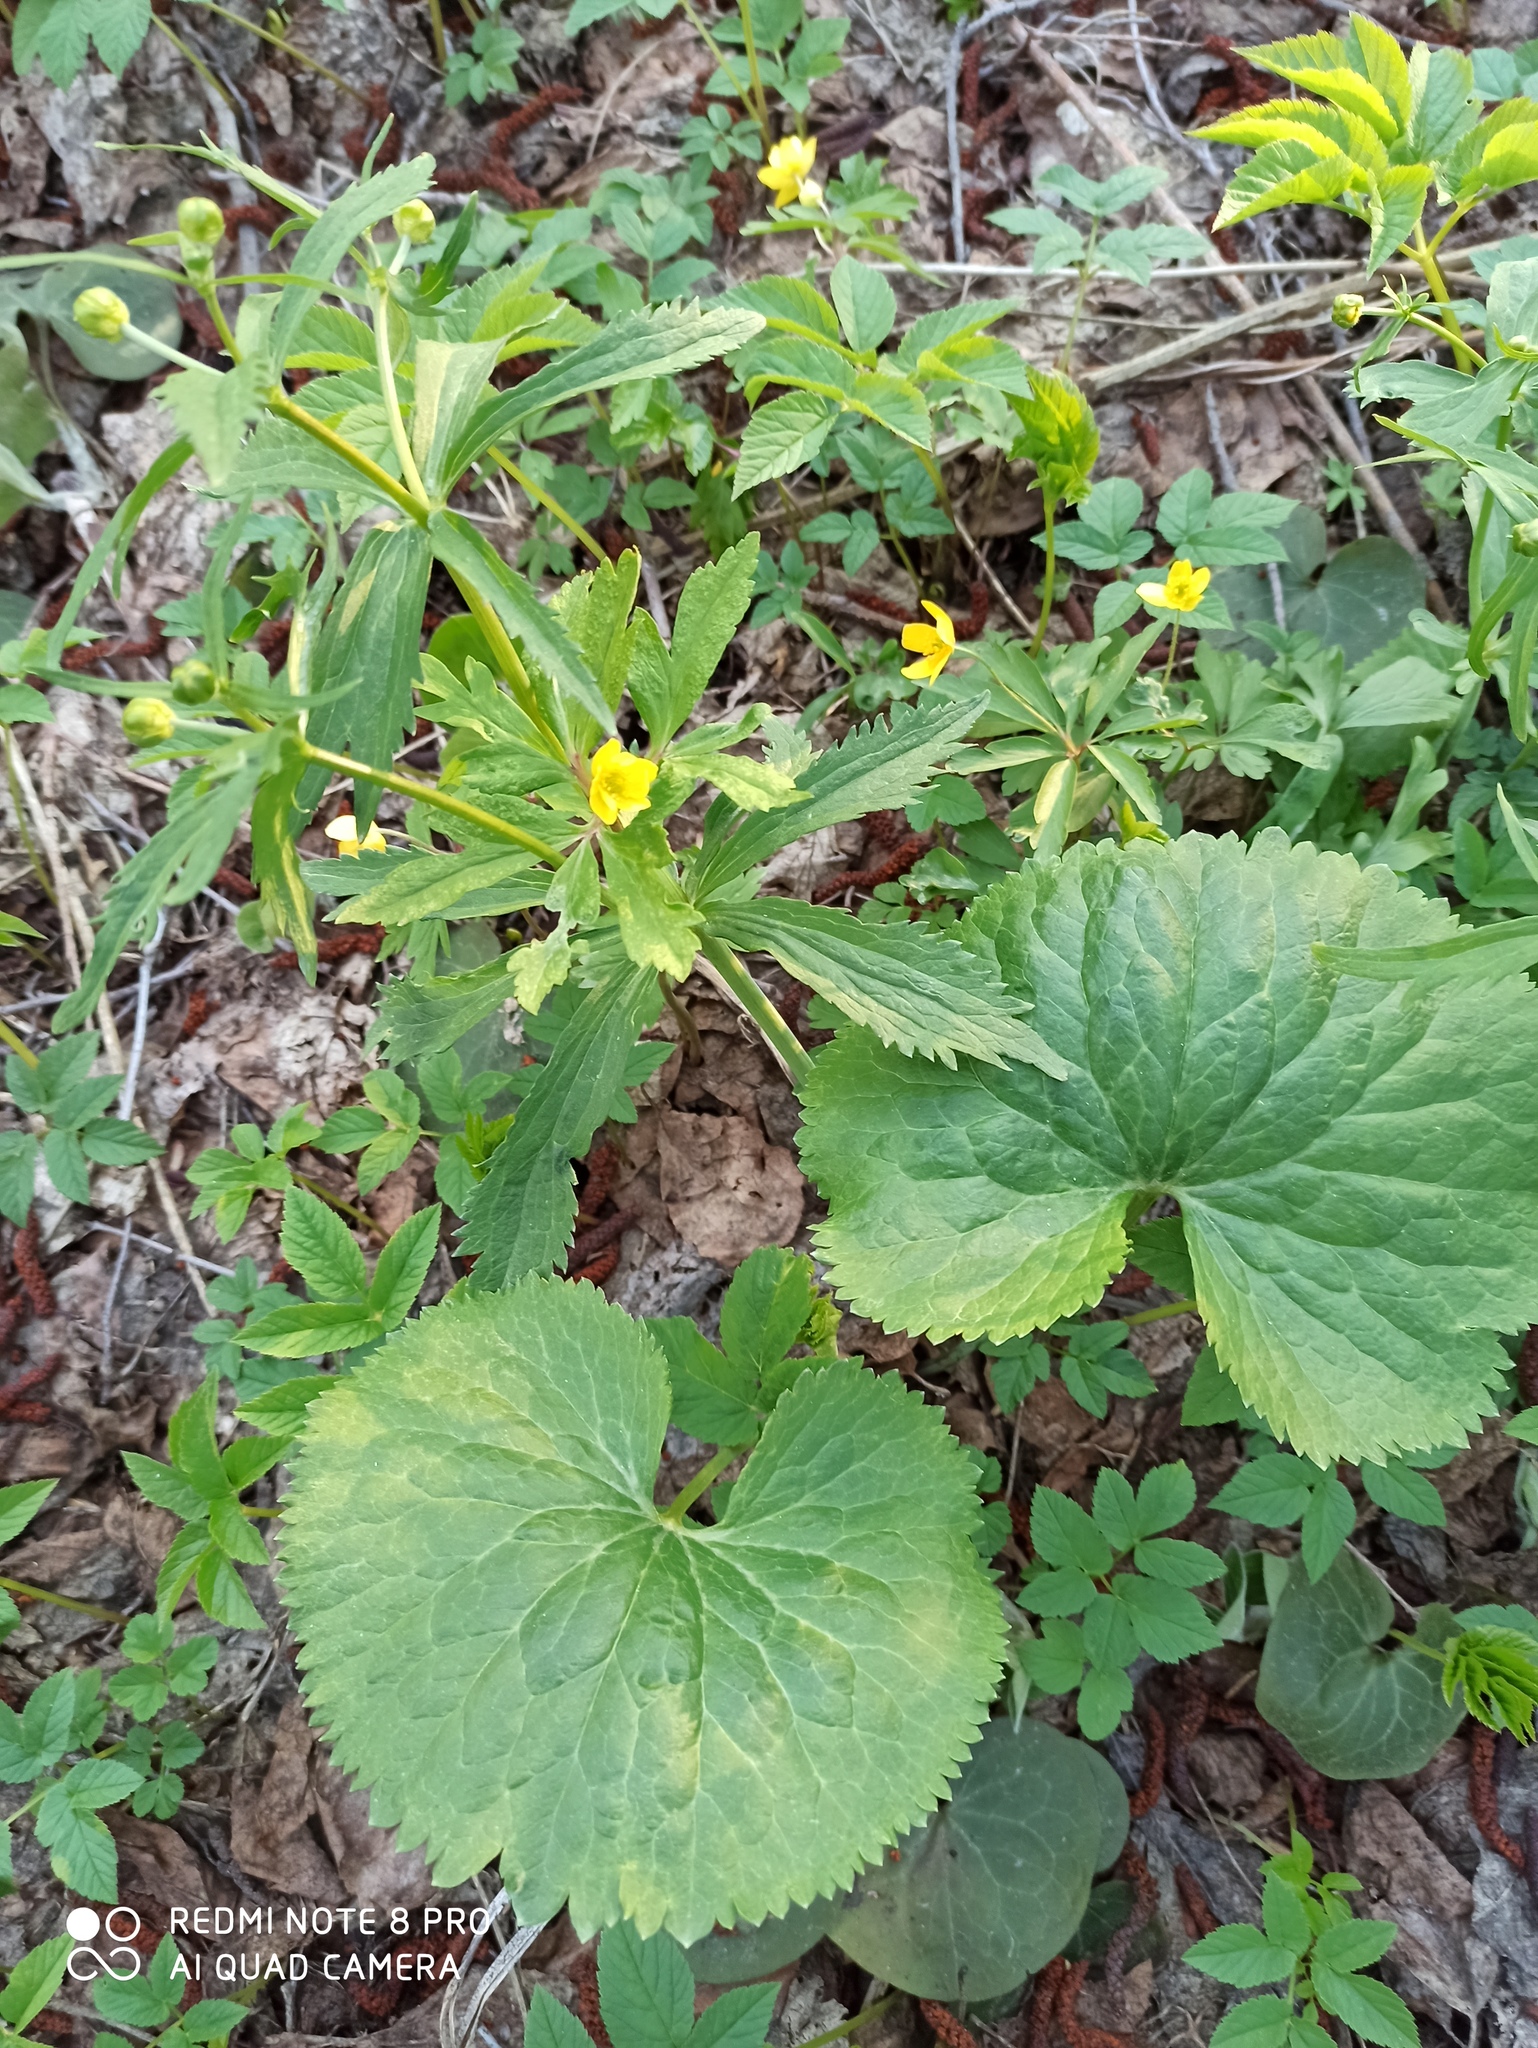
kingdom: Plantae
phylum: Tracheophyta
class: Magnoliopsida
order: Ranunculales
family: Ranunculaceae
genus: Ranunculus
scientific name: Ranunculus cassubicus
